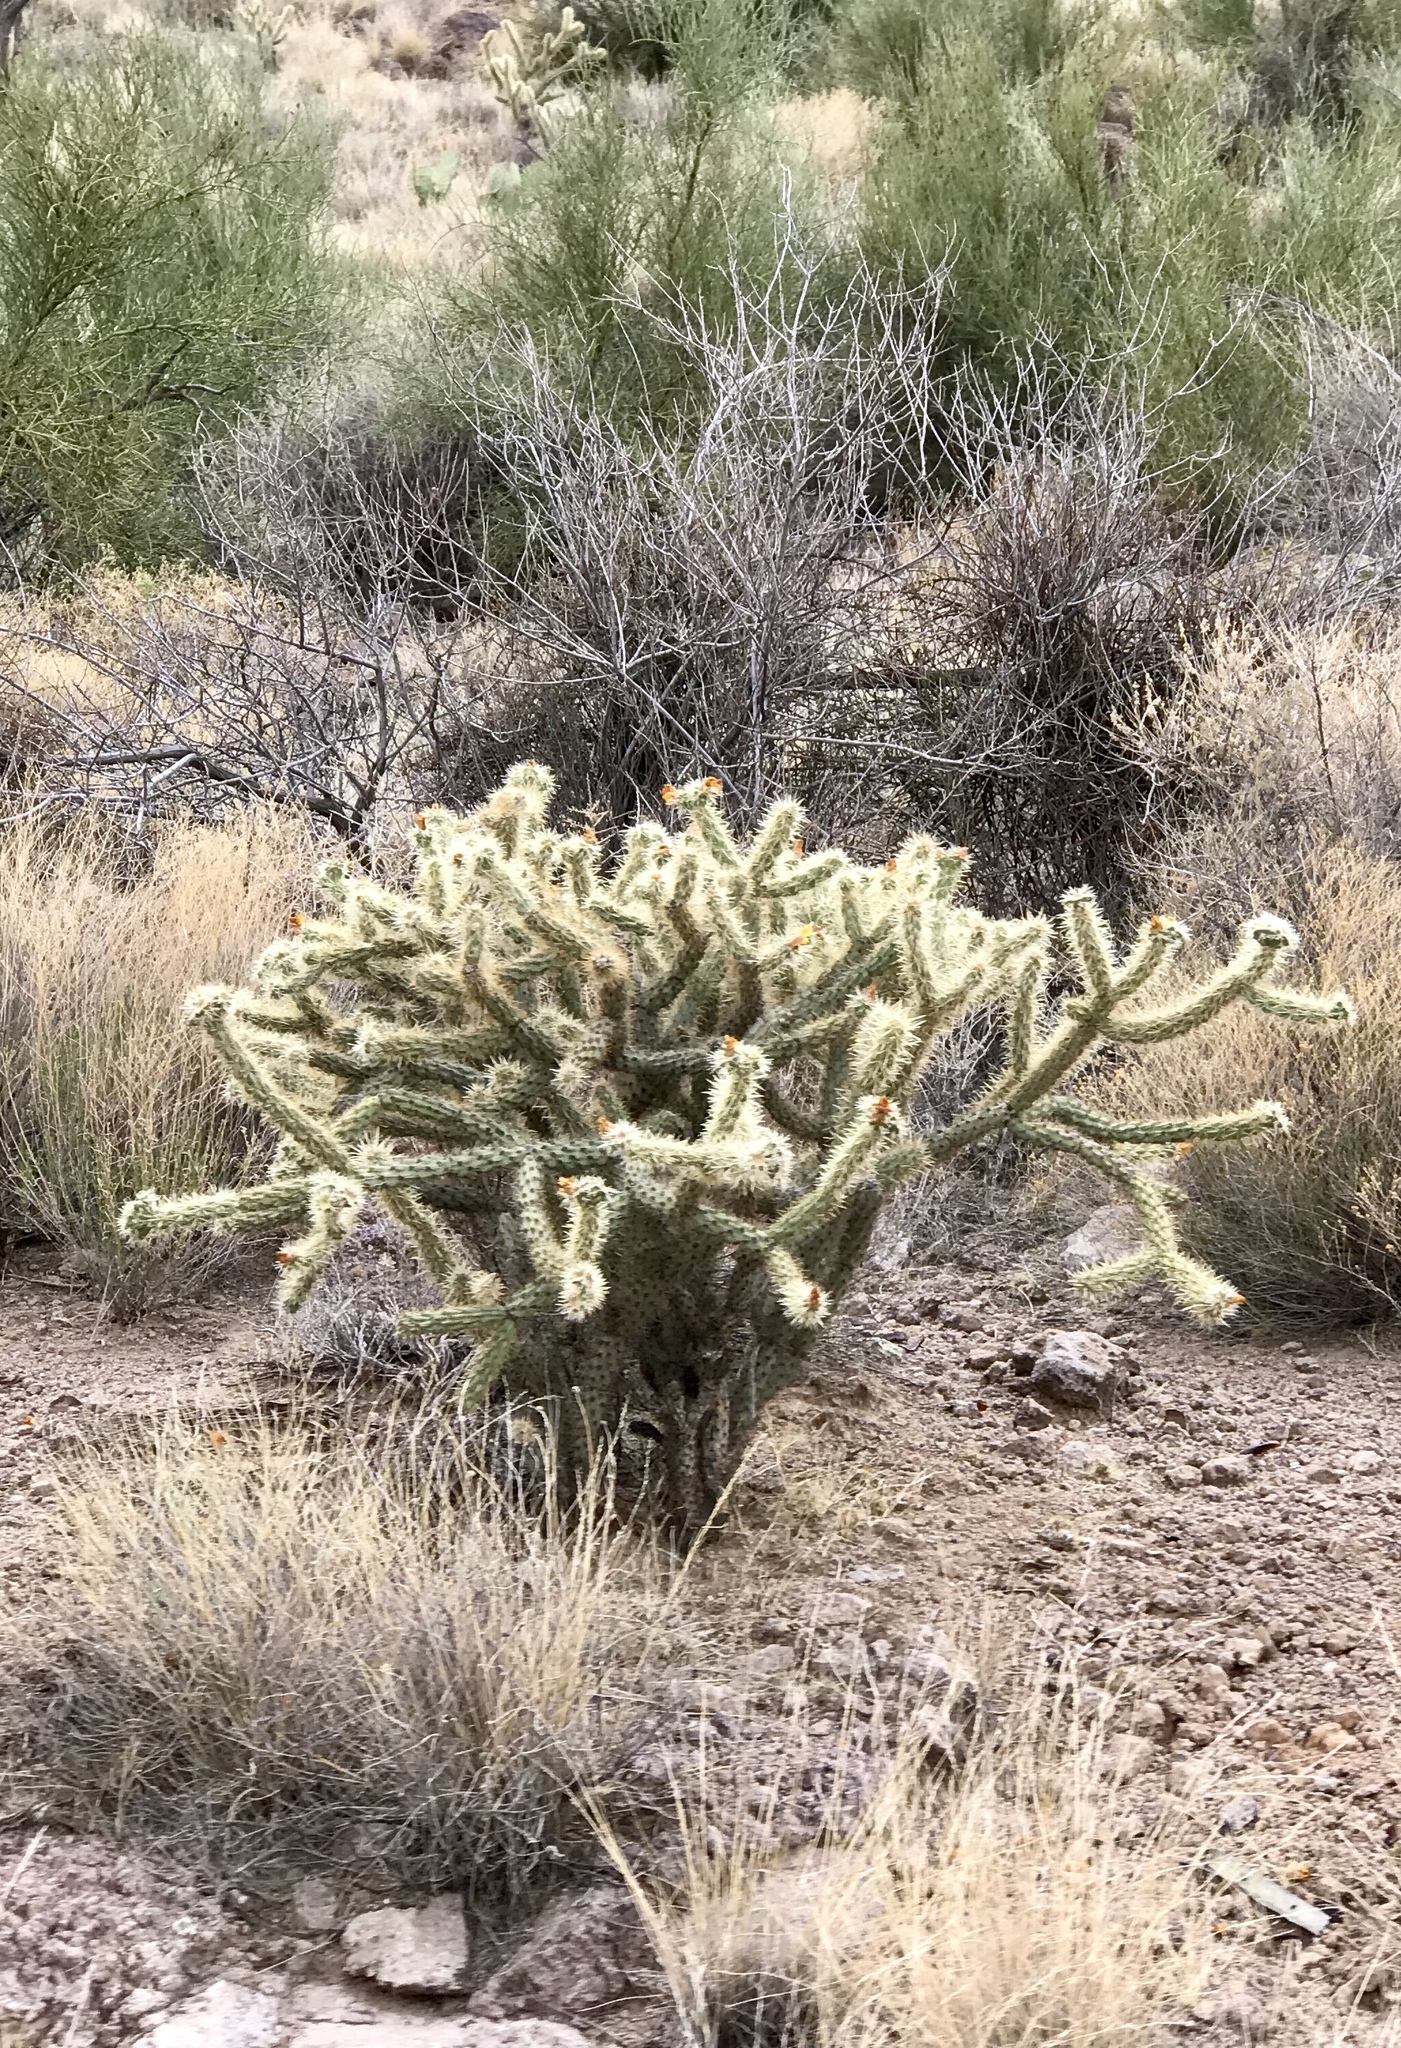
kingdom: Plantae
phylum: Tracheophyta
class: Magnoliopsida
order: Caryophyllales
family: Cactaceae
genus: Cylindropuntia
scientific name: Cylindropuntia acanthocarpa
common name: Buckhorn cholla
